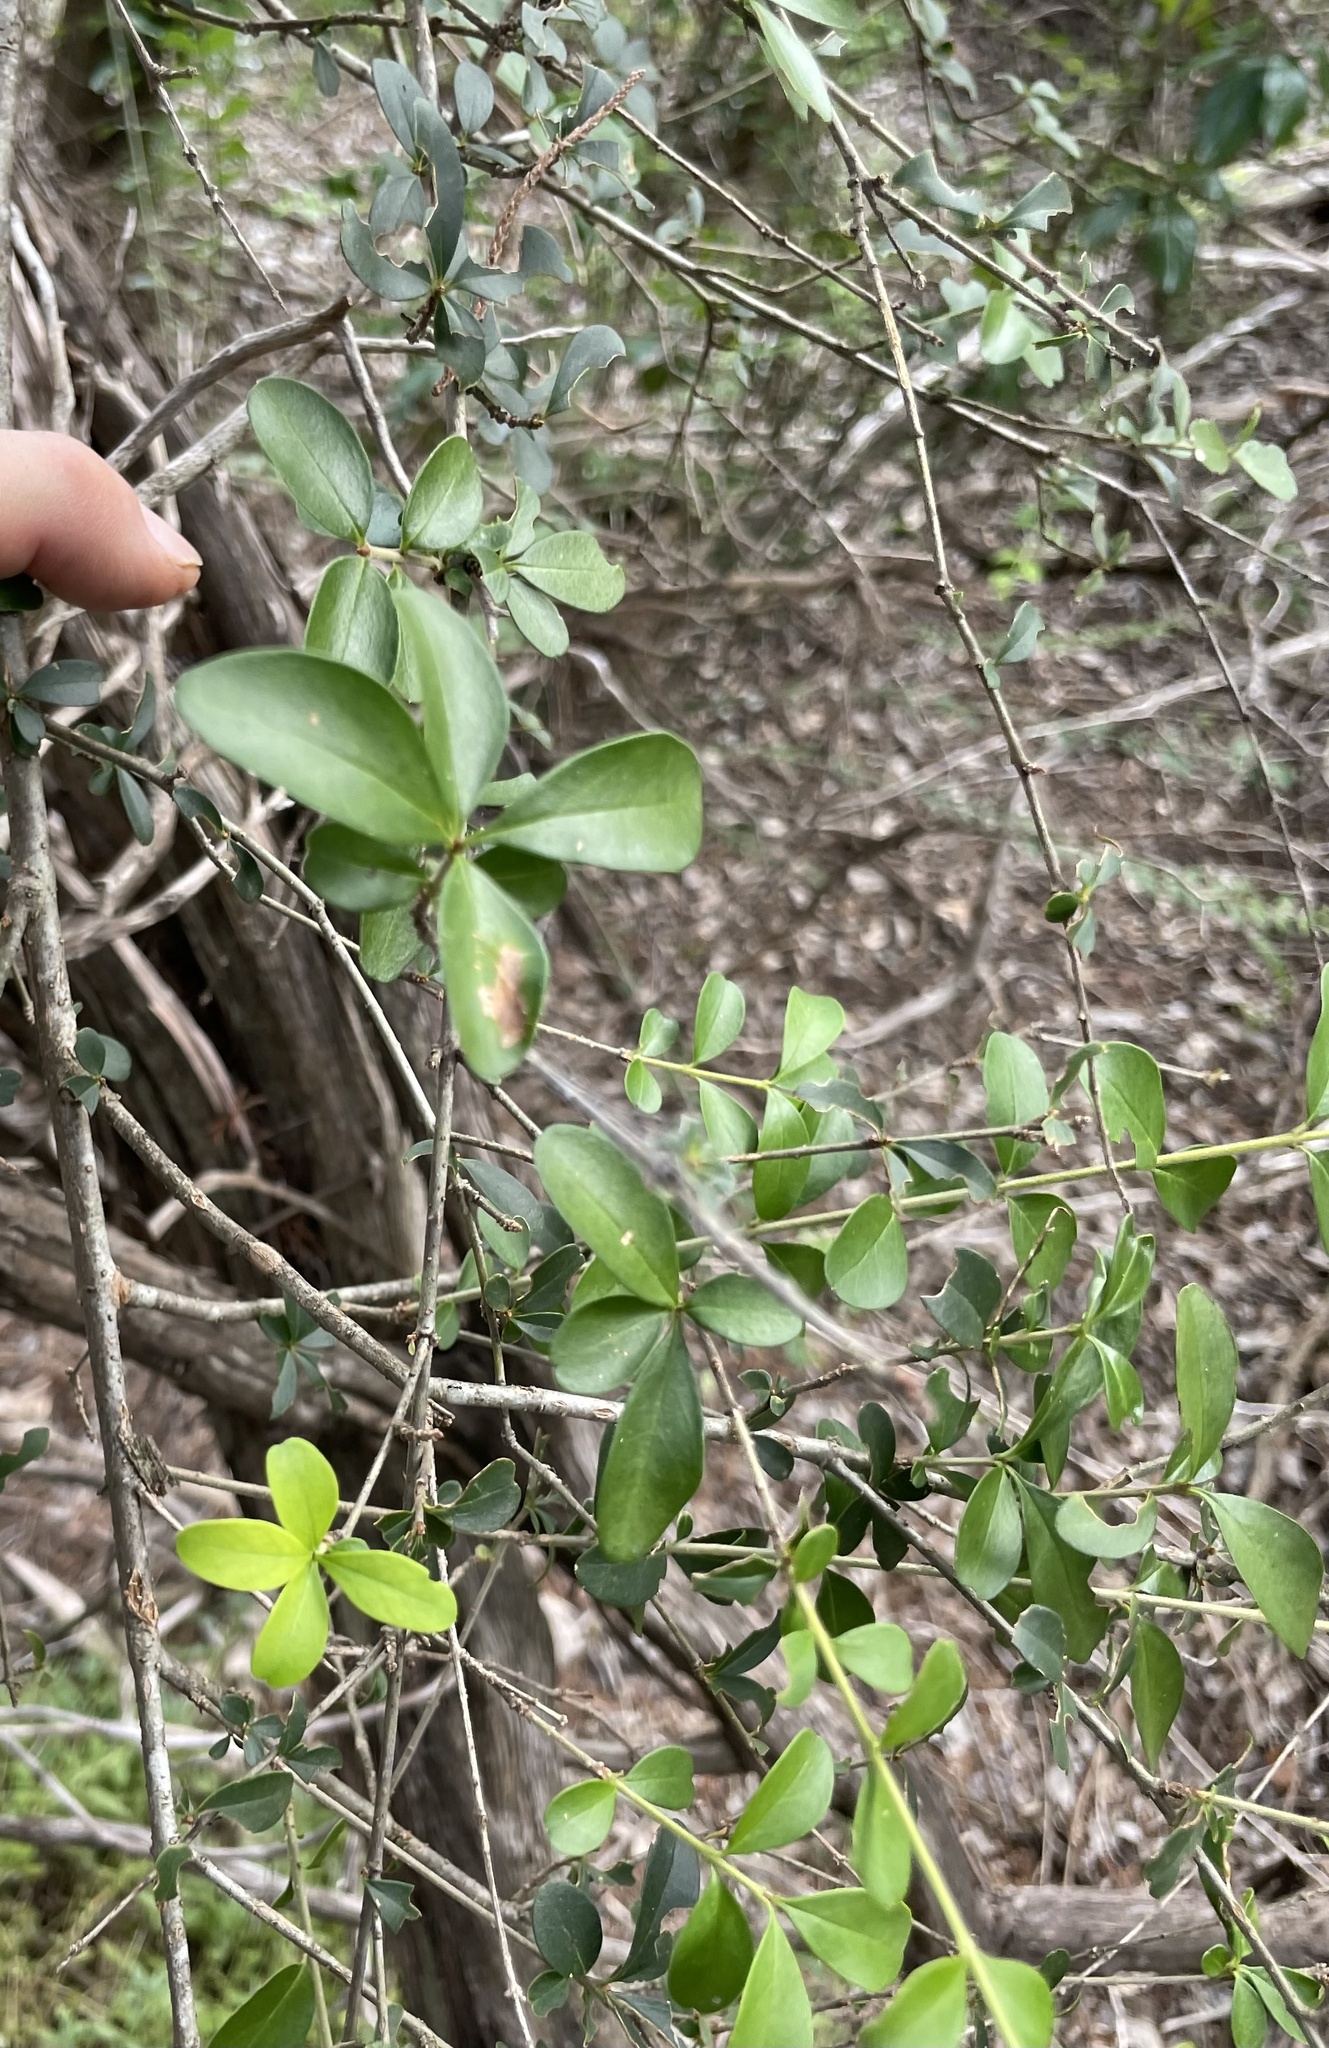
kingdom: Plantae
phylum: Tracheophyta
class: Magnoliopsida
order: Lamiales
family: Oleaceae
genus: Ligustrum
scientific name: Ligustrum quihoui
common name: Waxyleaf privet
